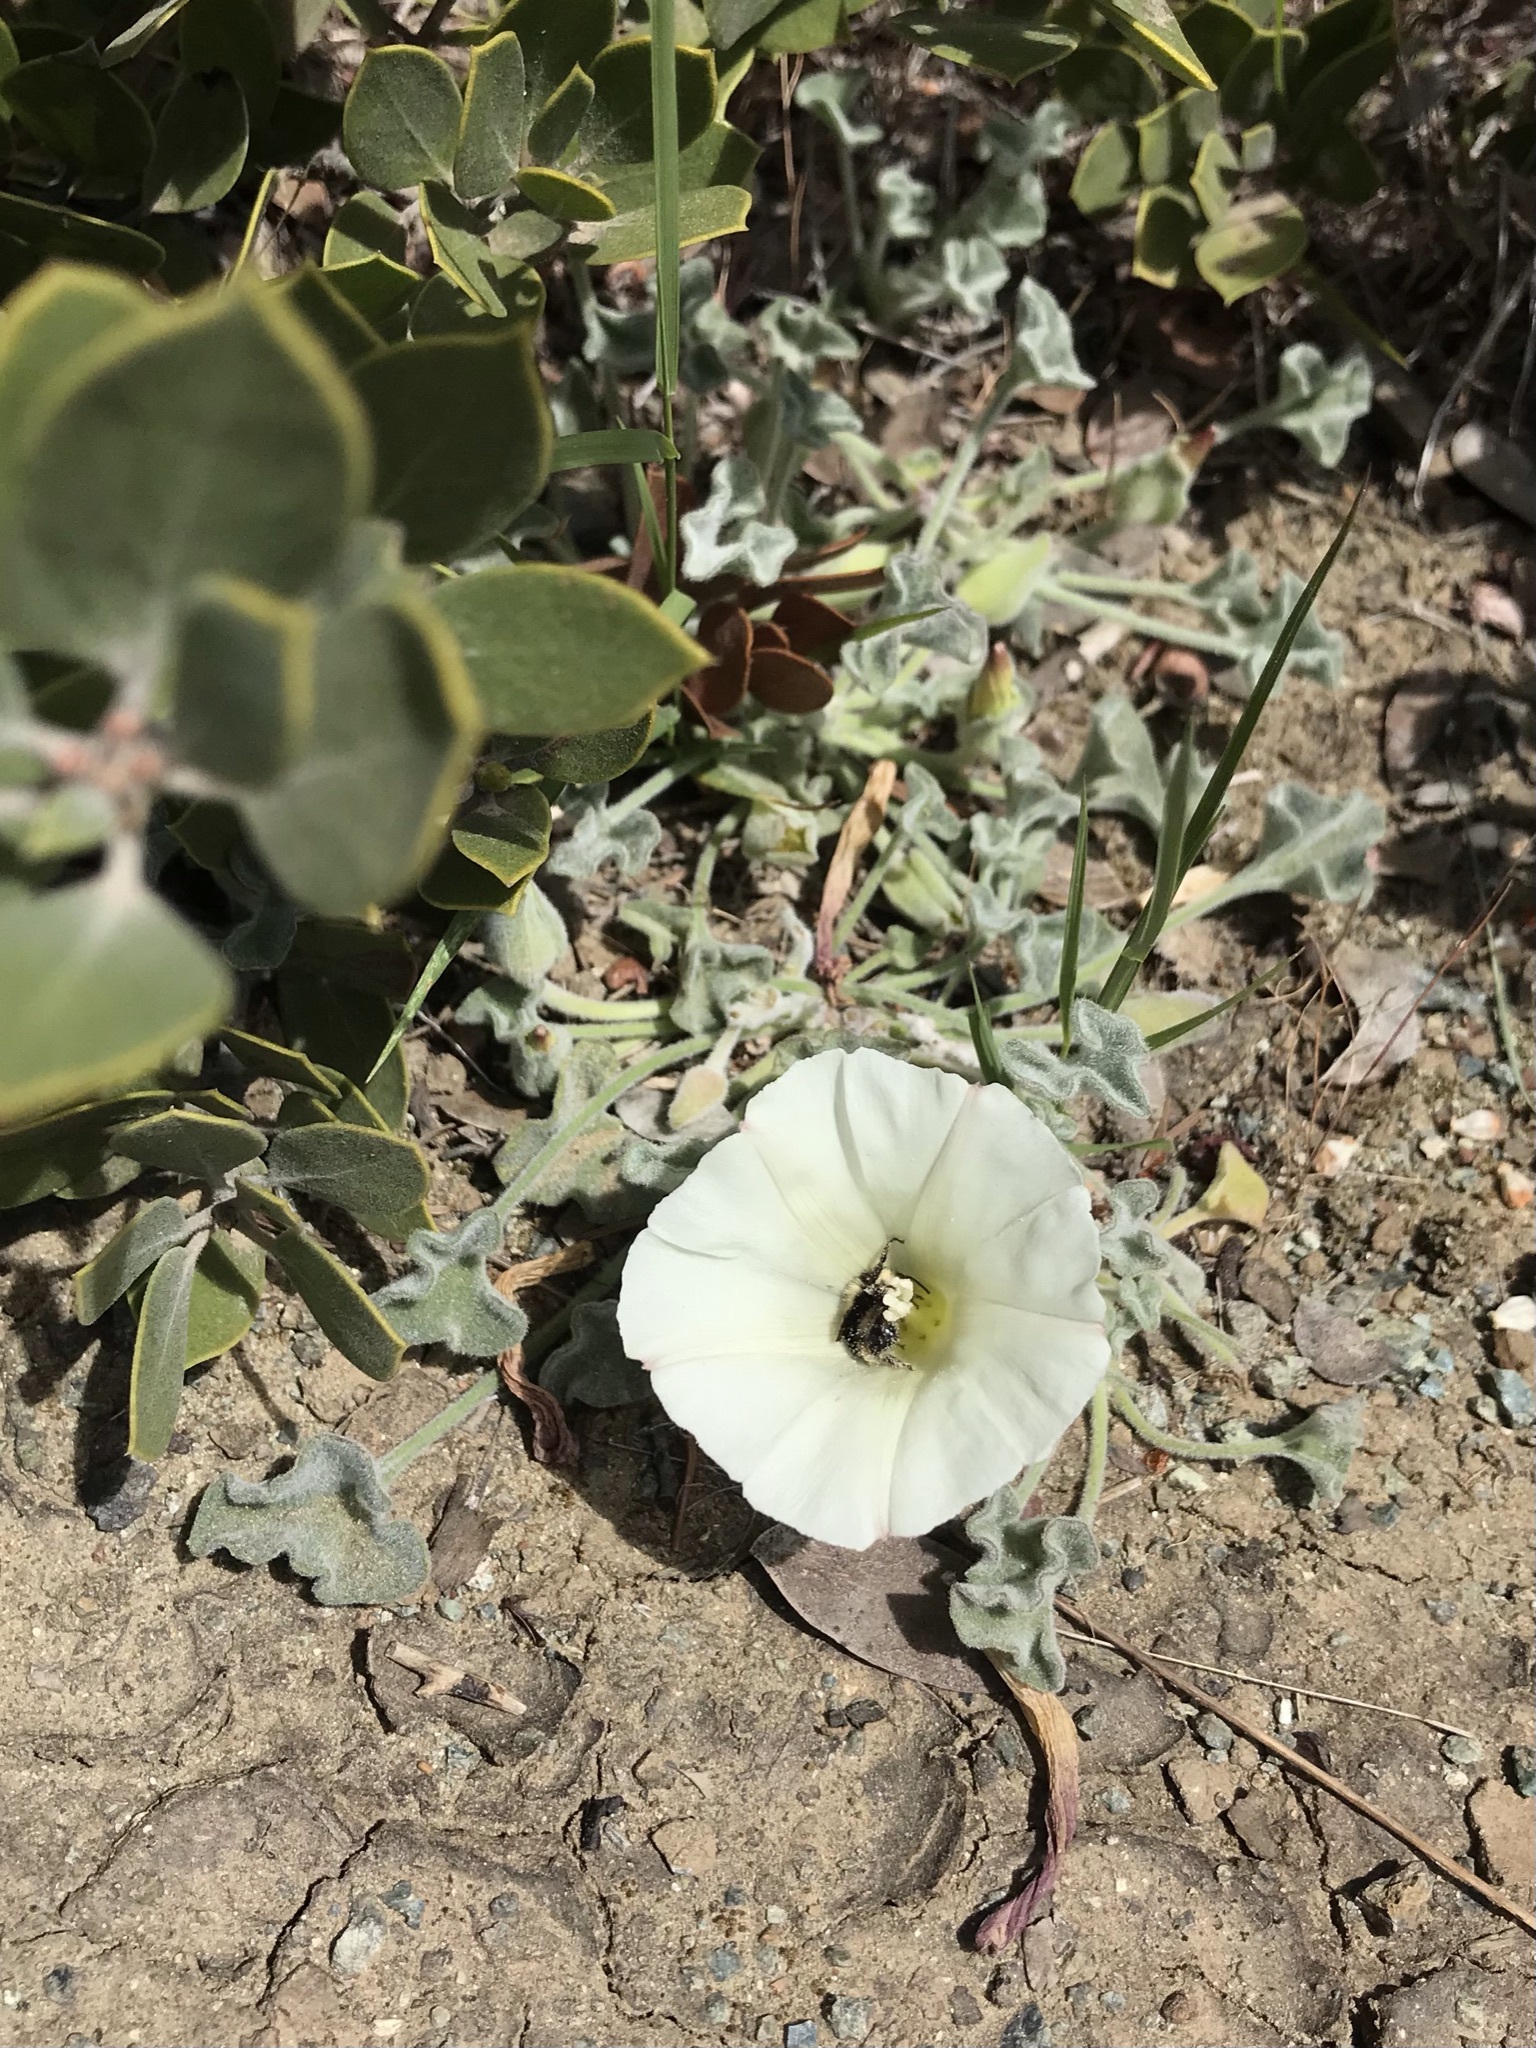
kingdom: Plantae
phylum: Tracheophyta
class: Magnoliopsida
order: Solanales
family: Convolvulaceae
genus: Calystegia
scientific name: Calystegia collina
